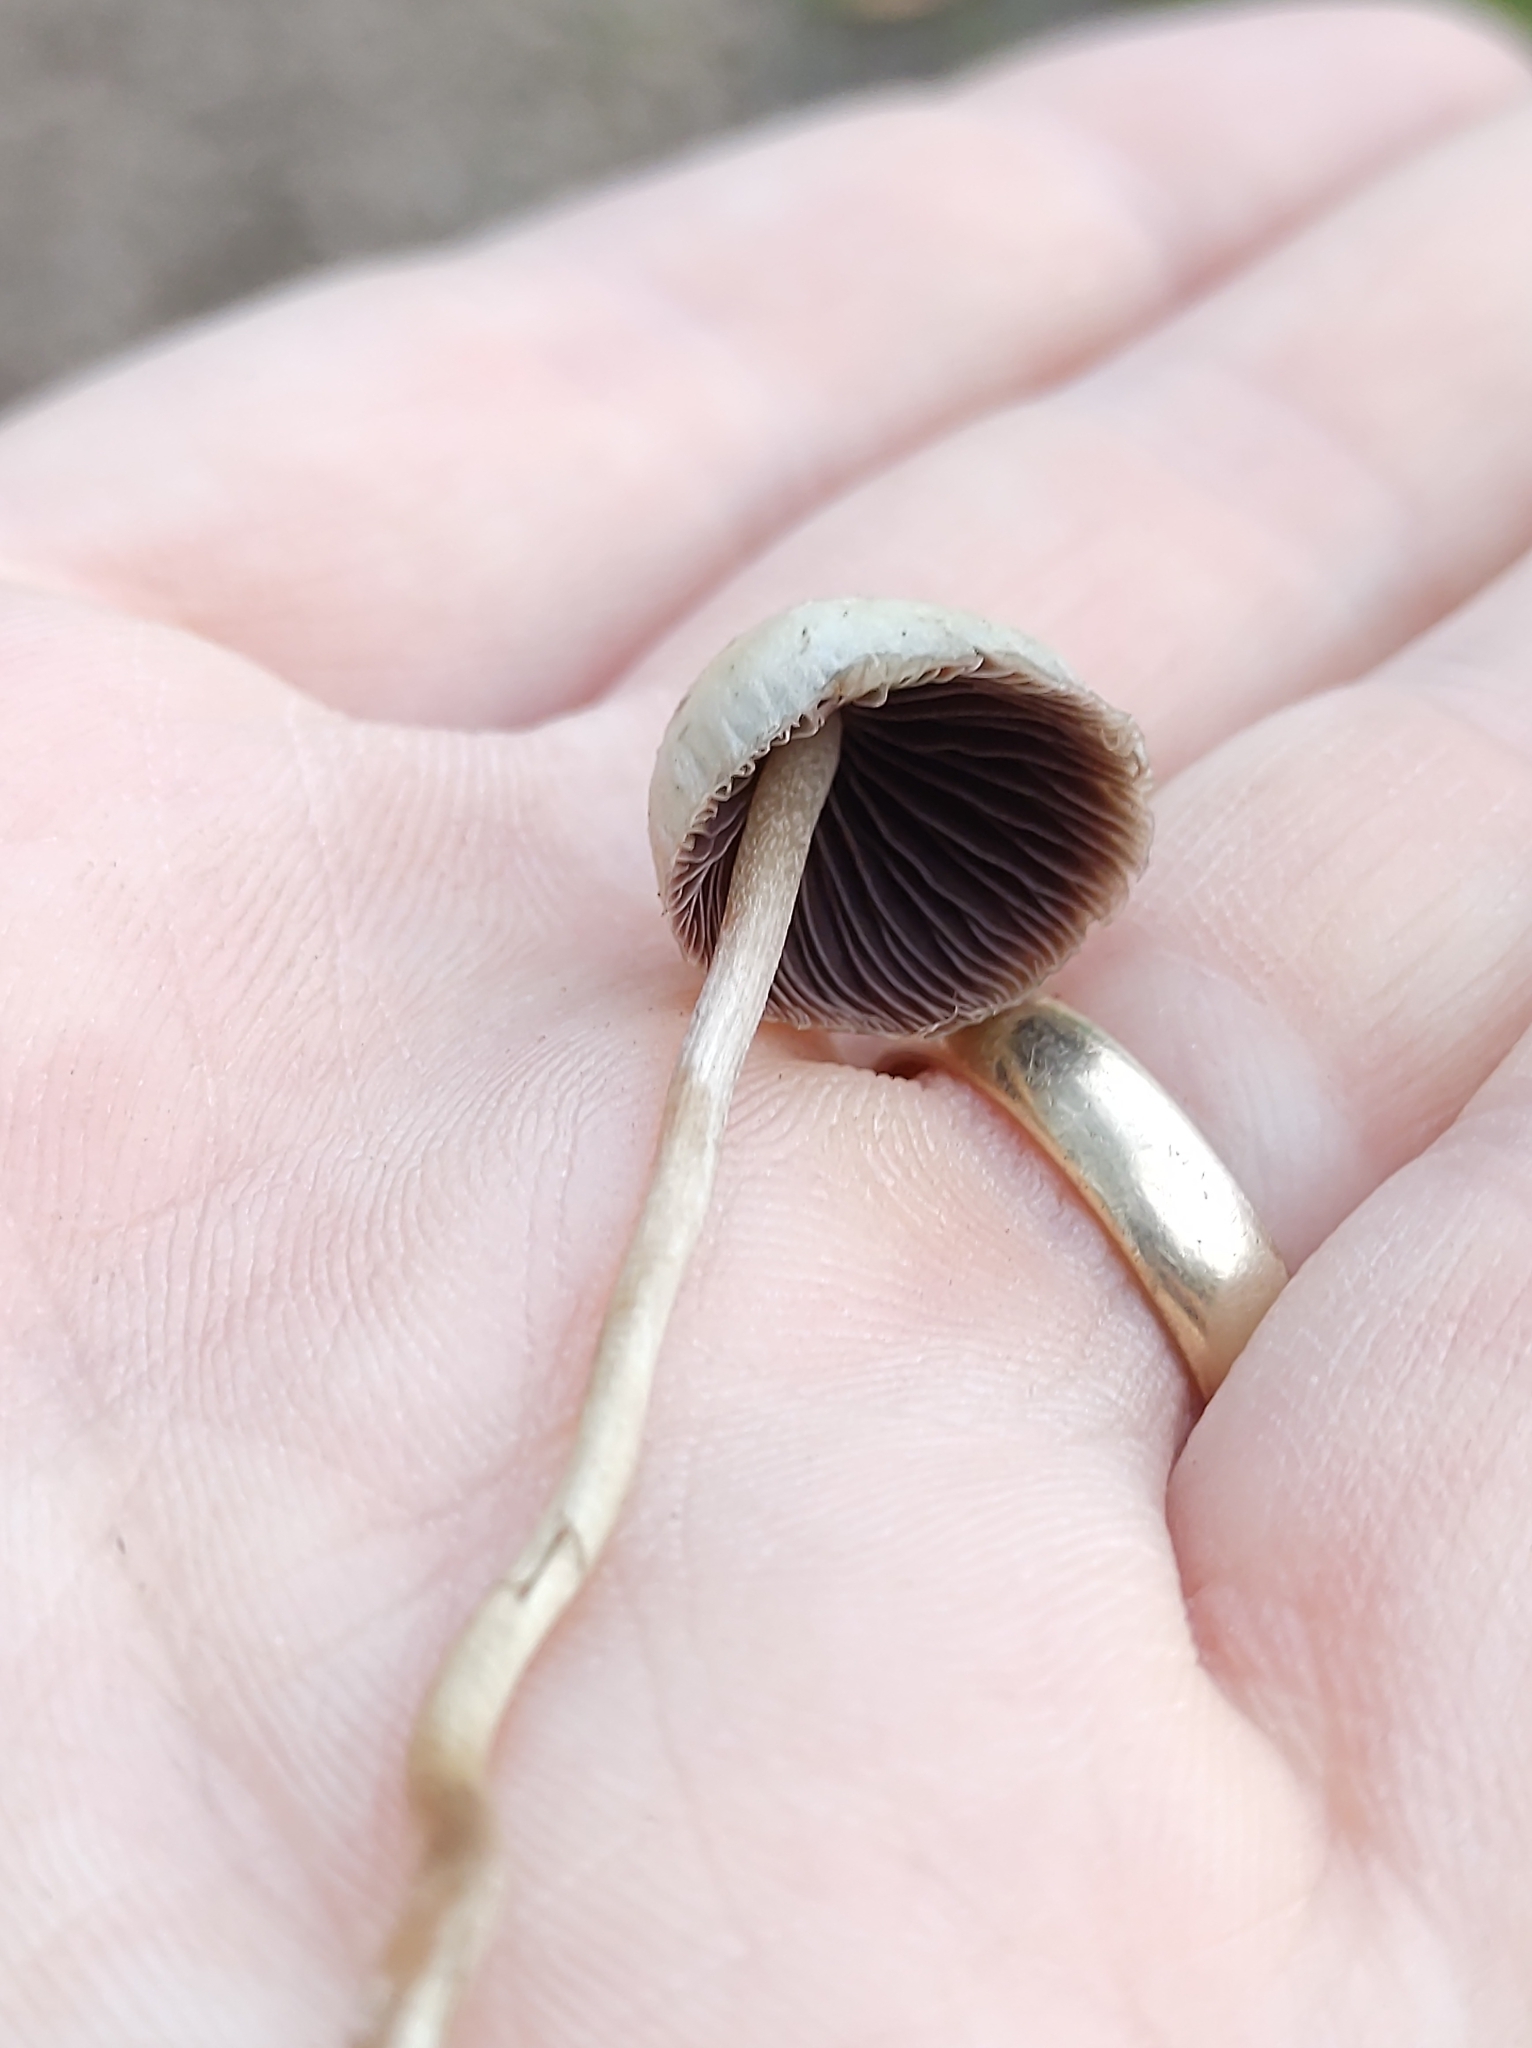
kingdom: Fungi
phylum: Basidiomycota
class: Agaricomycetes
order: Agaricales
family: Hymenogastraceae
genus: Psilocybe
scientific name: Psilocybe semilanceata
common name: Liberty cap
